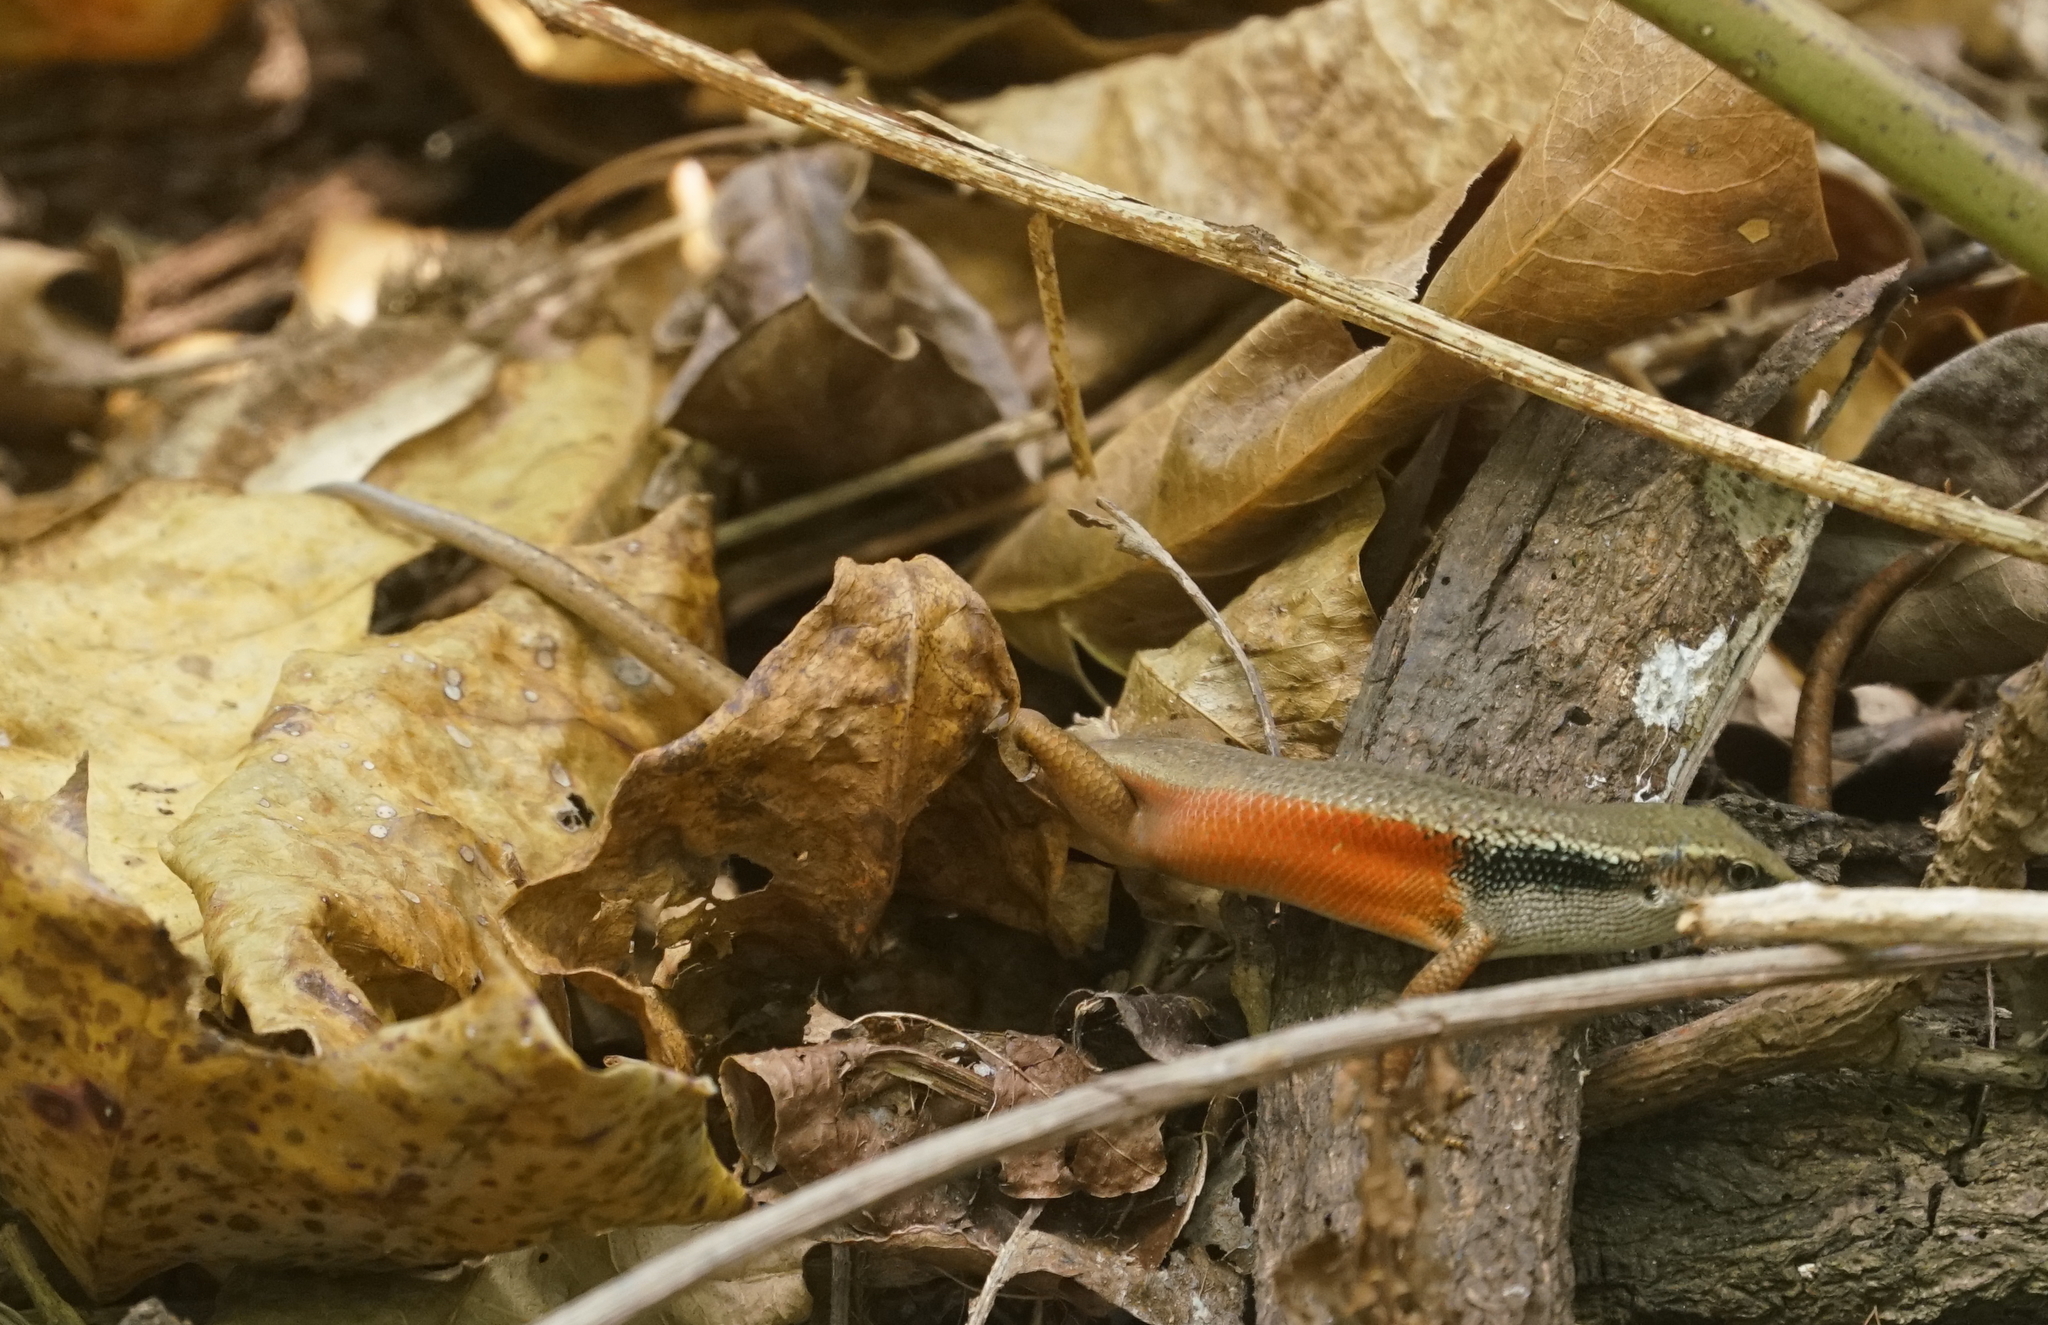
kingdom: Animalia
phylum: Chordata
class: Squamata
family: Scincidae
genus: Carlia
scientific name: Carlia longipes
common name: Closed-litter rainbow-skink
